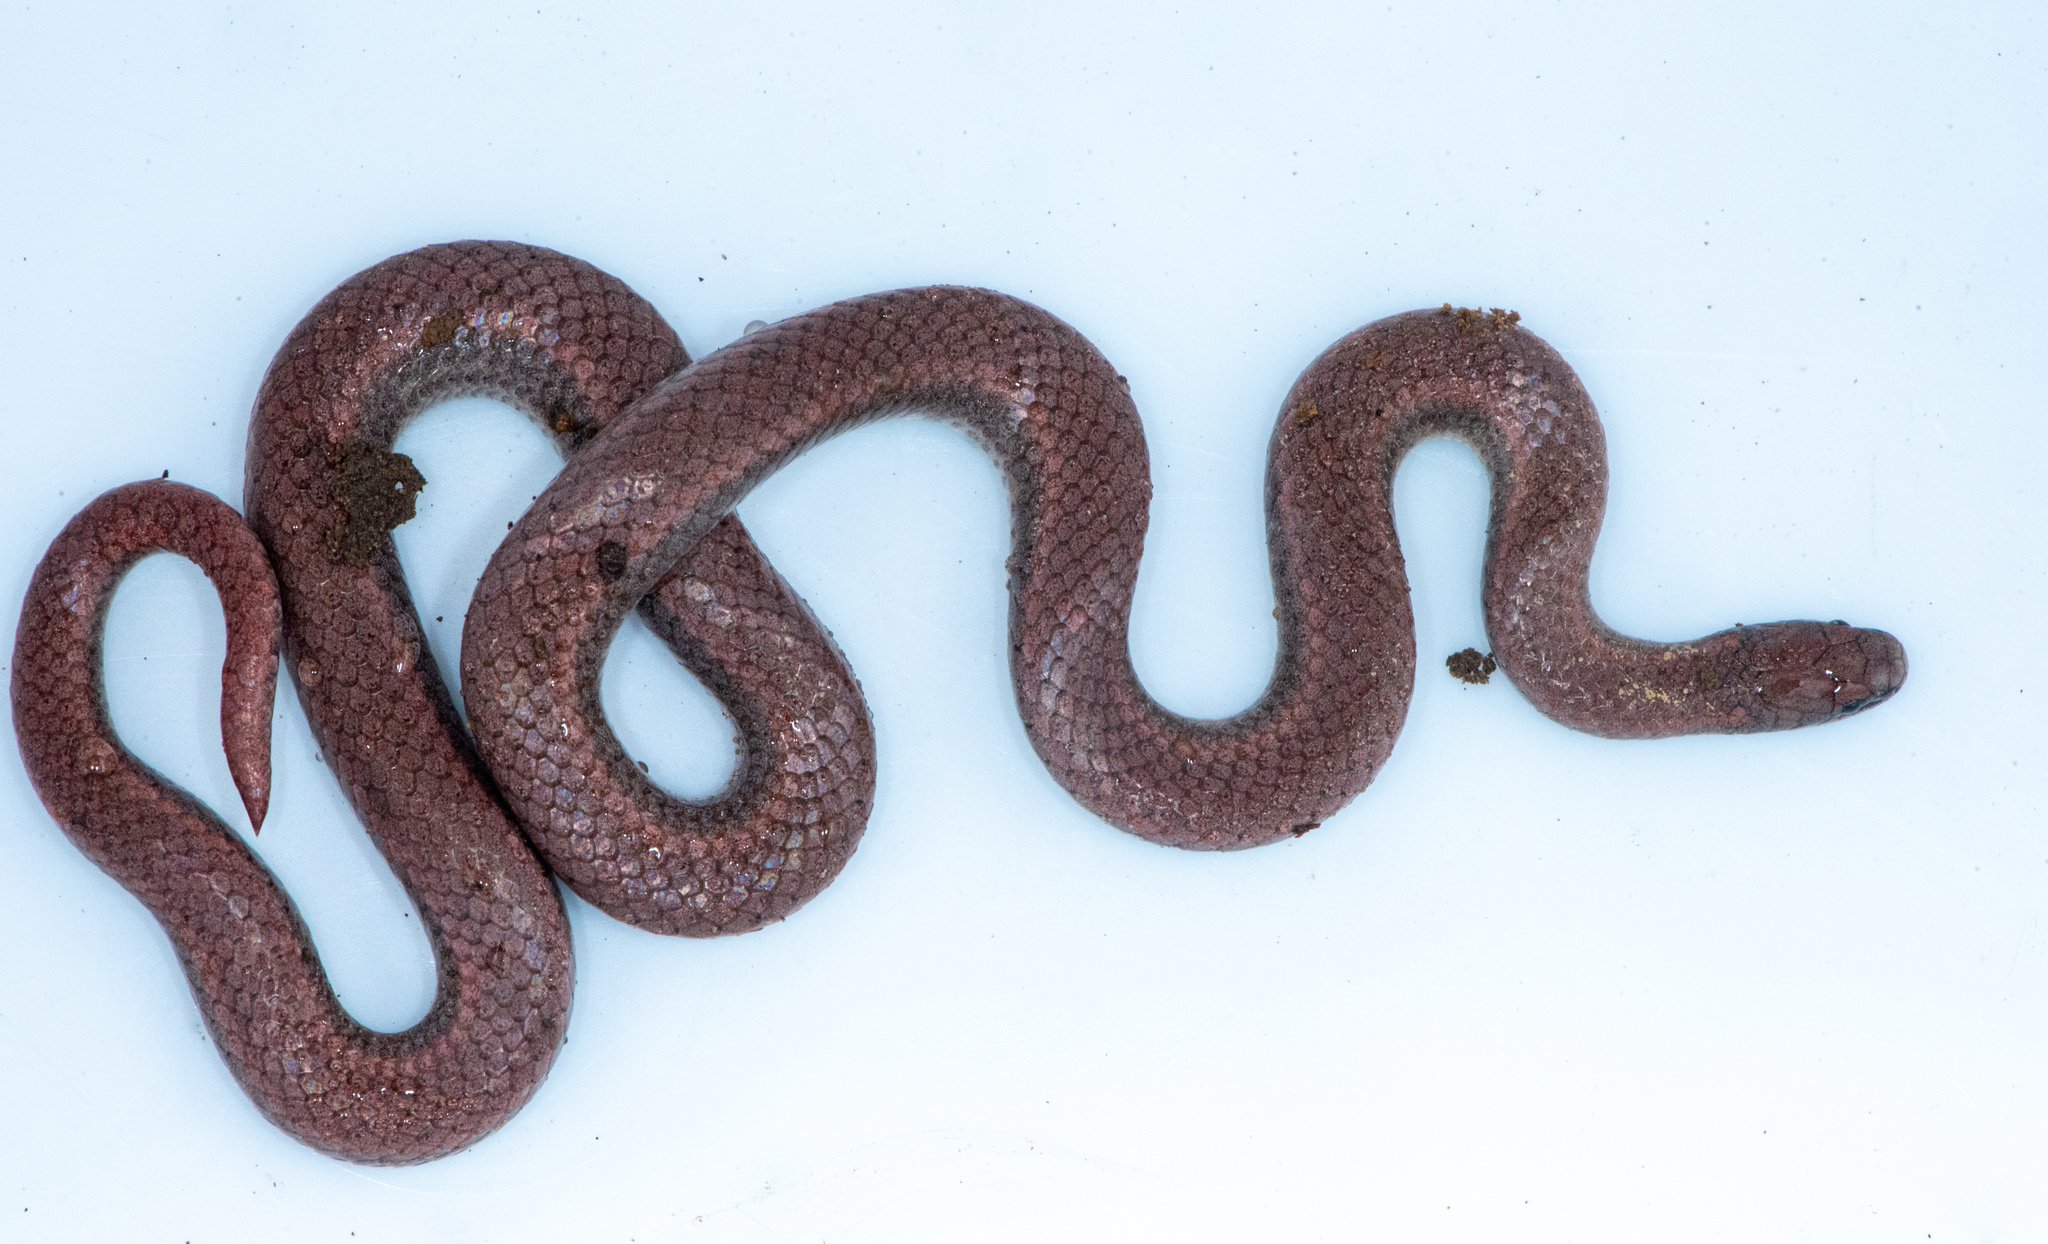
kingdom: Animalia
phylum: Chordata
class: Squamata
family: Colubridae
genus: Contia
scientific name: Contia tenuis
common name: Sharptail snake
